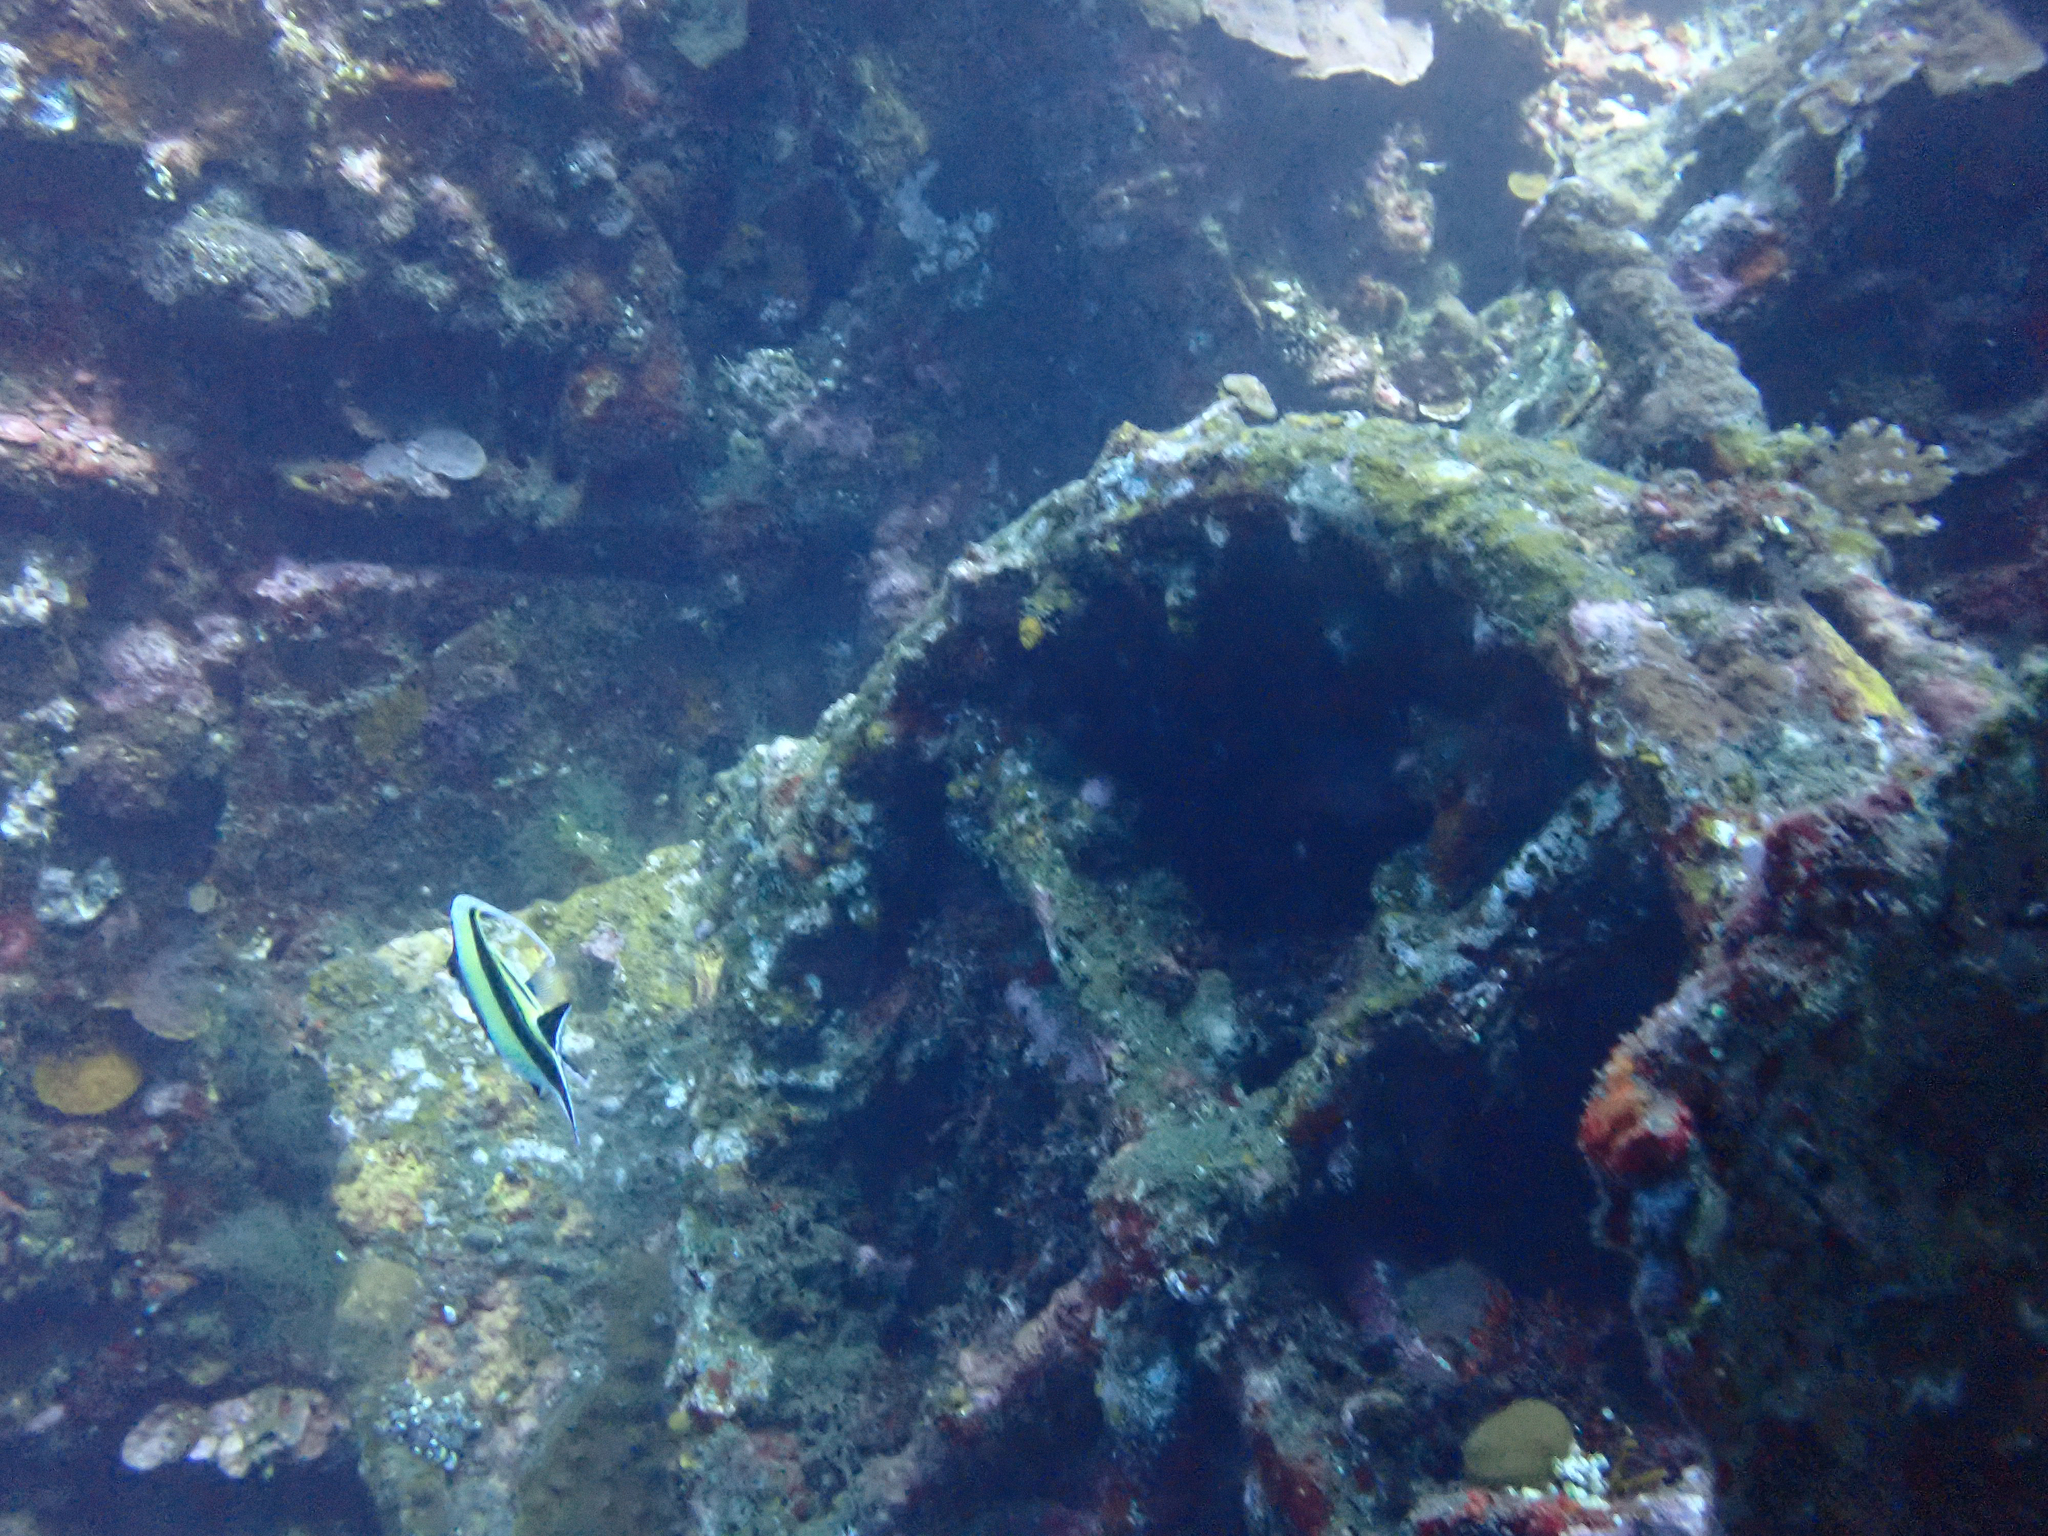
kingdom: Animalia
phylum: Chordata
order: Perciformes
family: Zanclidae
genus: Zanclus
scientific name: Zanclus cornutus
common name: Moorish idol
